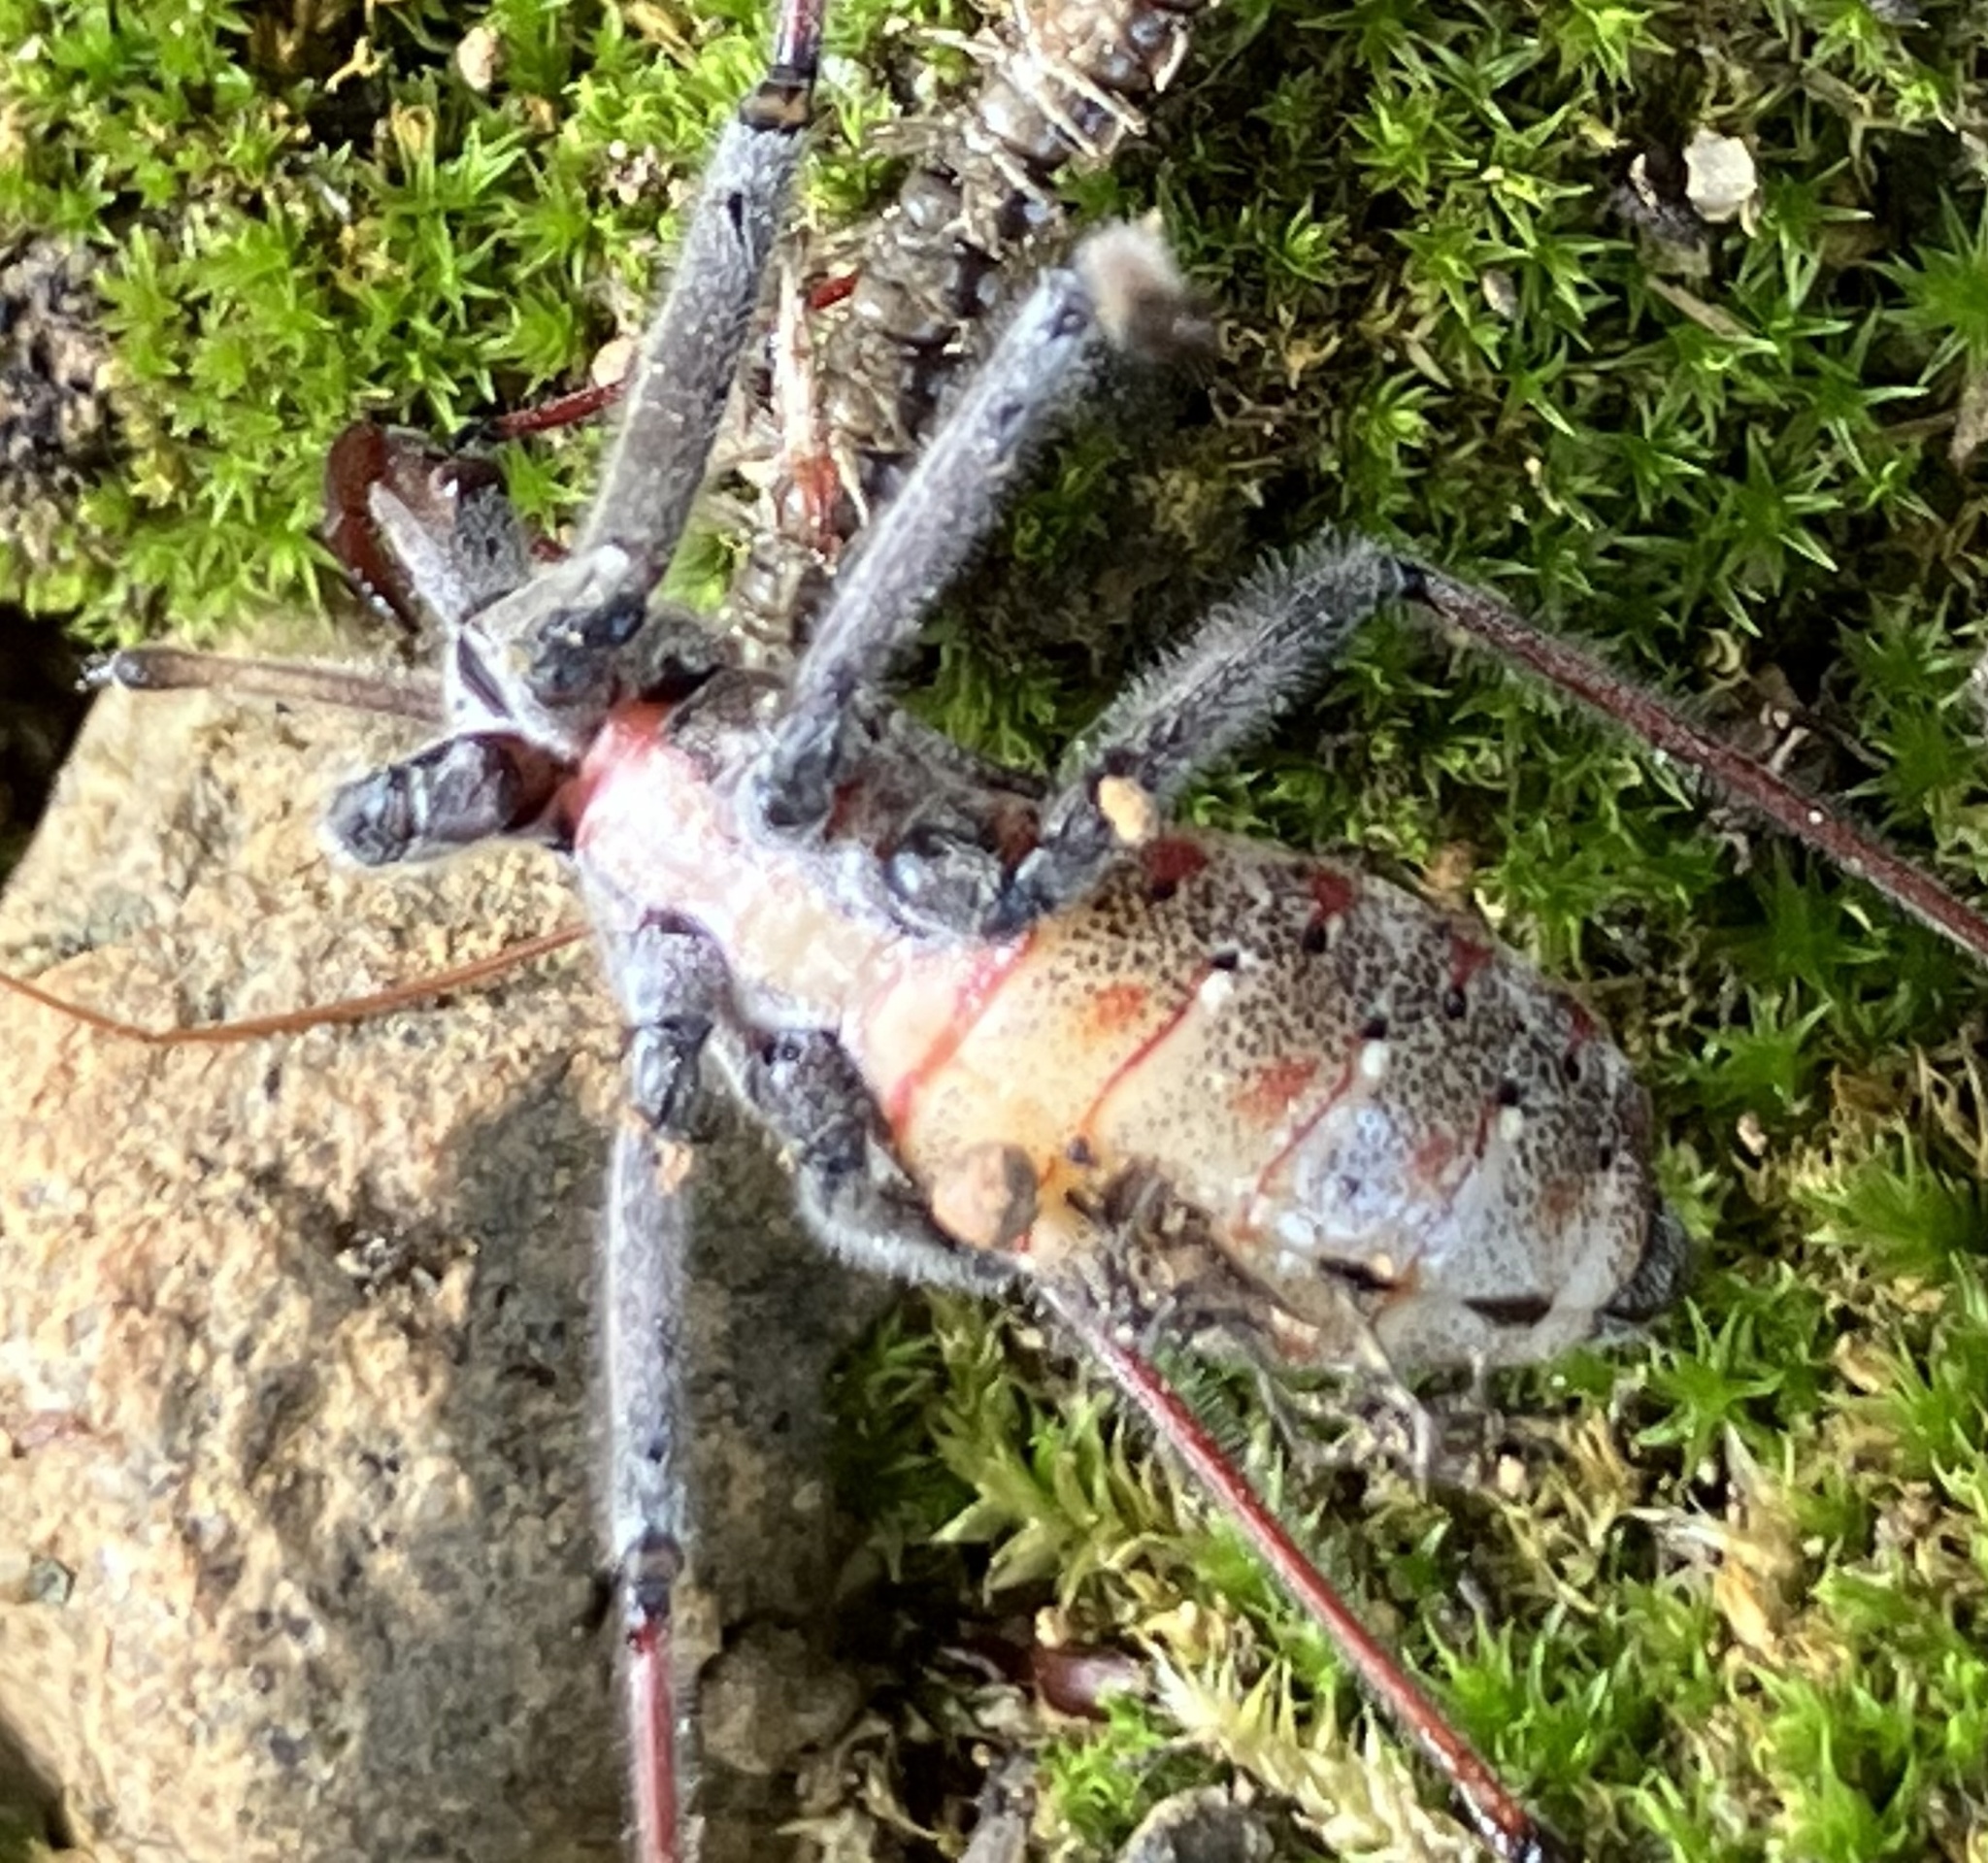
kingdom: Animalia
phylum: Arthropoda
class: Insecta
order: Hemiptera
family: Reduviidae
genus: Arilus
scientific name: Arilus cristatus
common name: North american wheel bug
